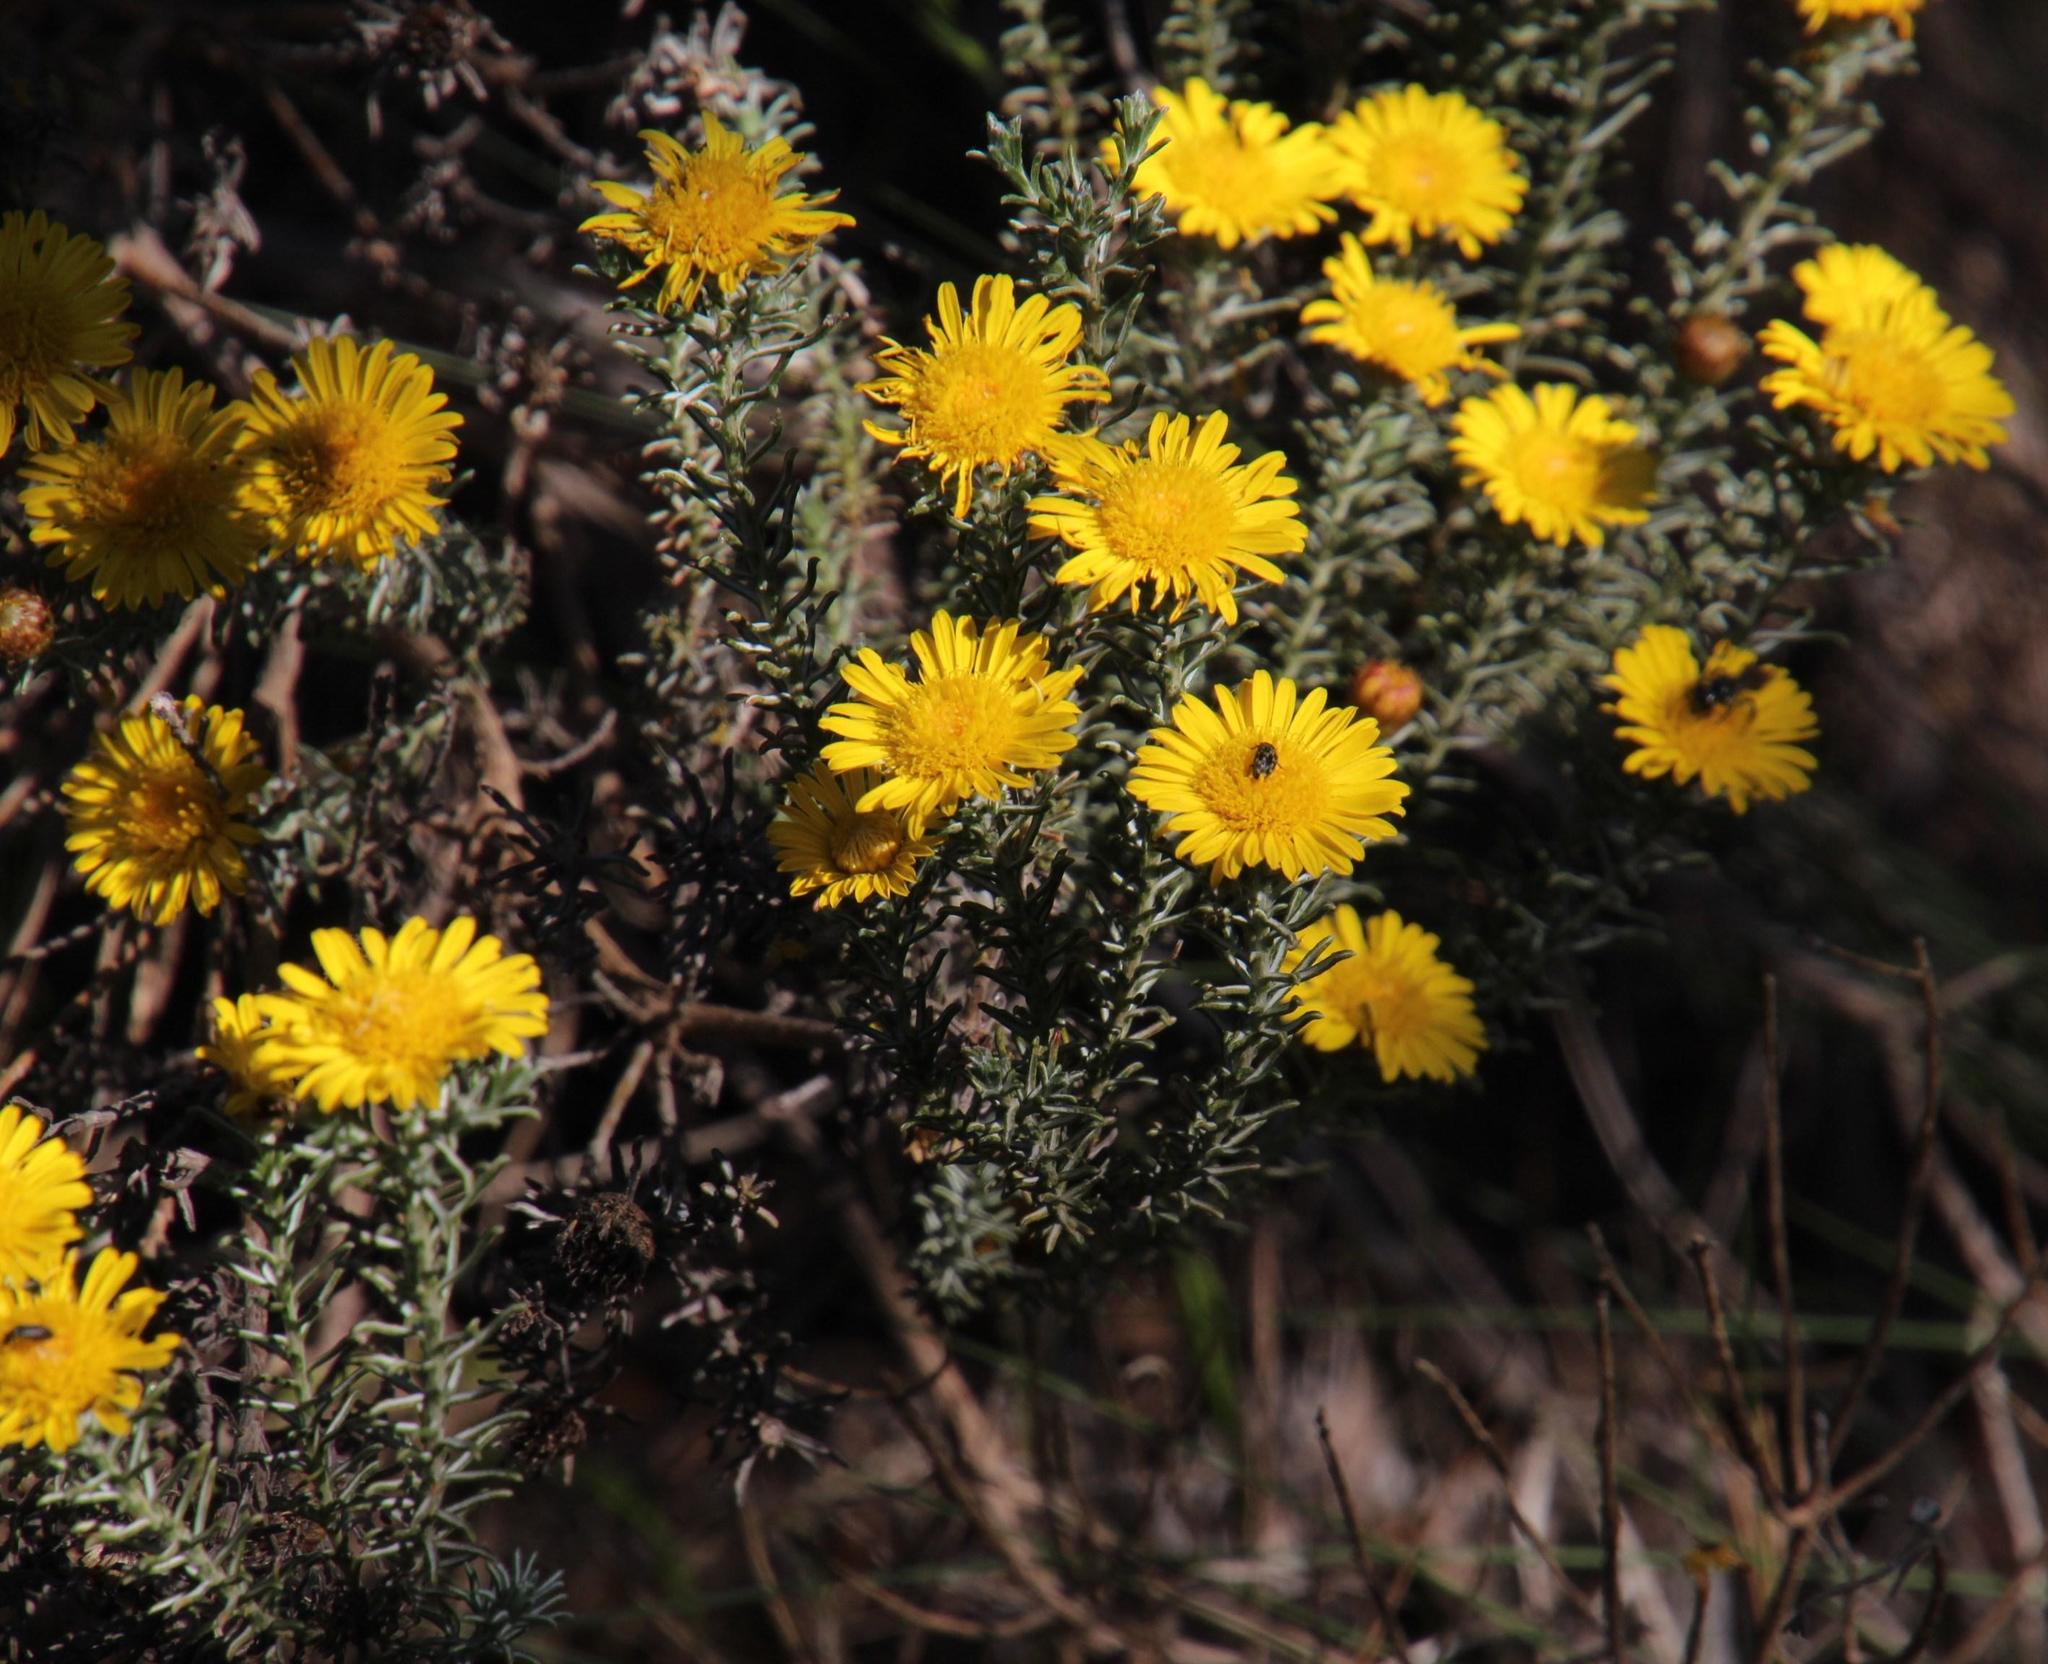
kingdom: Plantae
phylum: Tracheophyta
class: Magnoliopsida
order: Asterales
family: Asteraceae
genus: Oedera
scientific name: Oedera fruticosa
